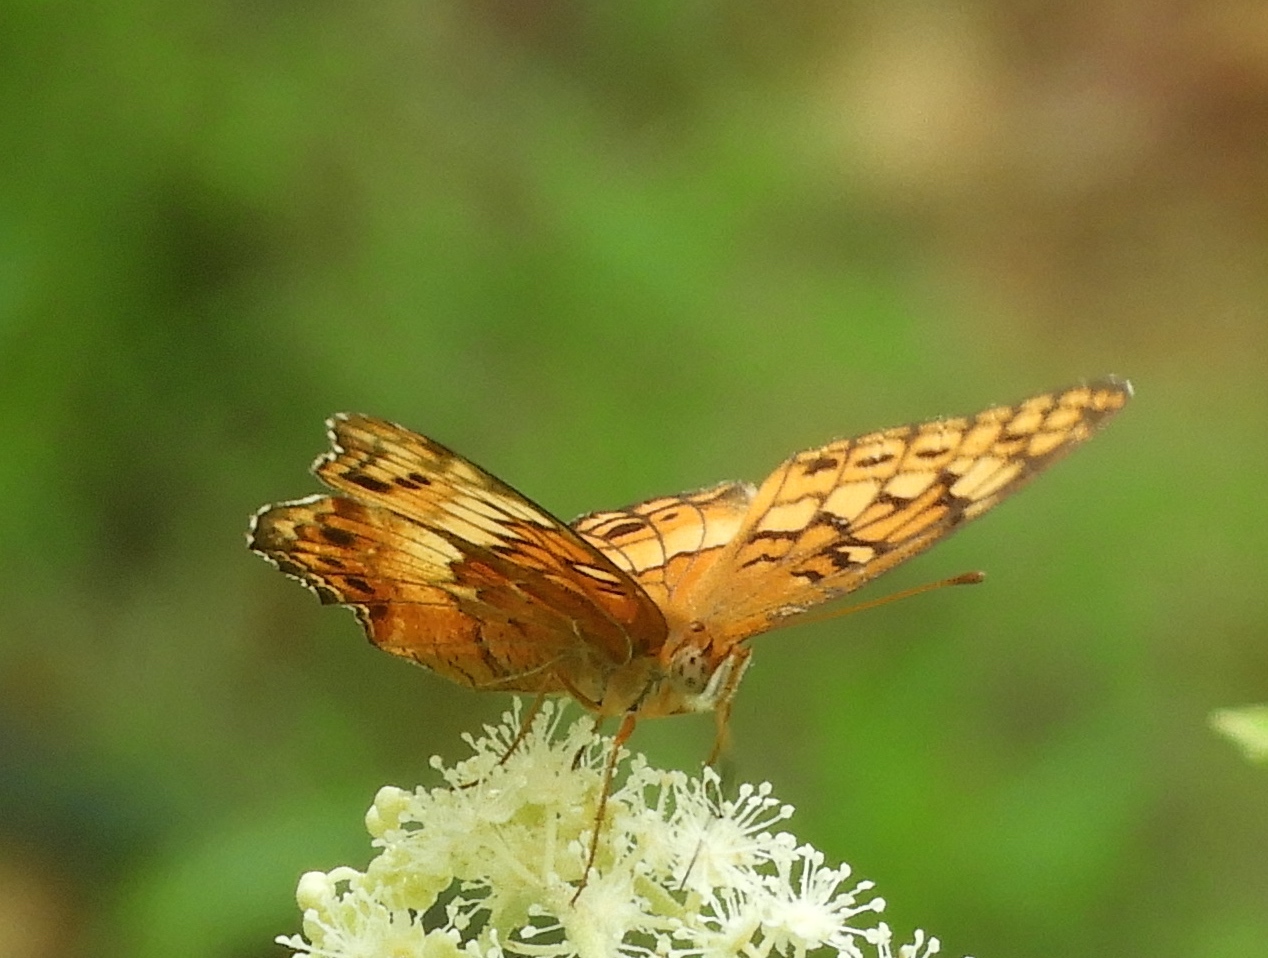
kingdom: Animalia
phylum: Arthropoda
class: Insecta
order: Lepidoptera
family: Nymphalidae
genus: Euptoieta
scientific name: Euptoieta claudia
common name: Variegated fritillary
